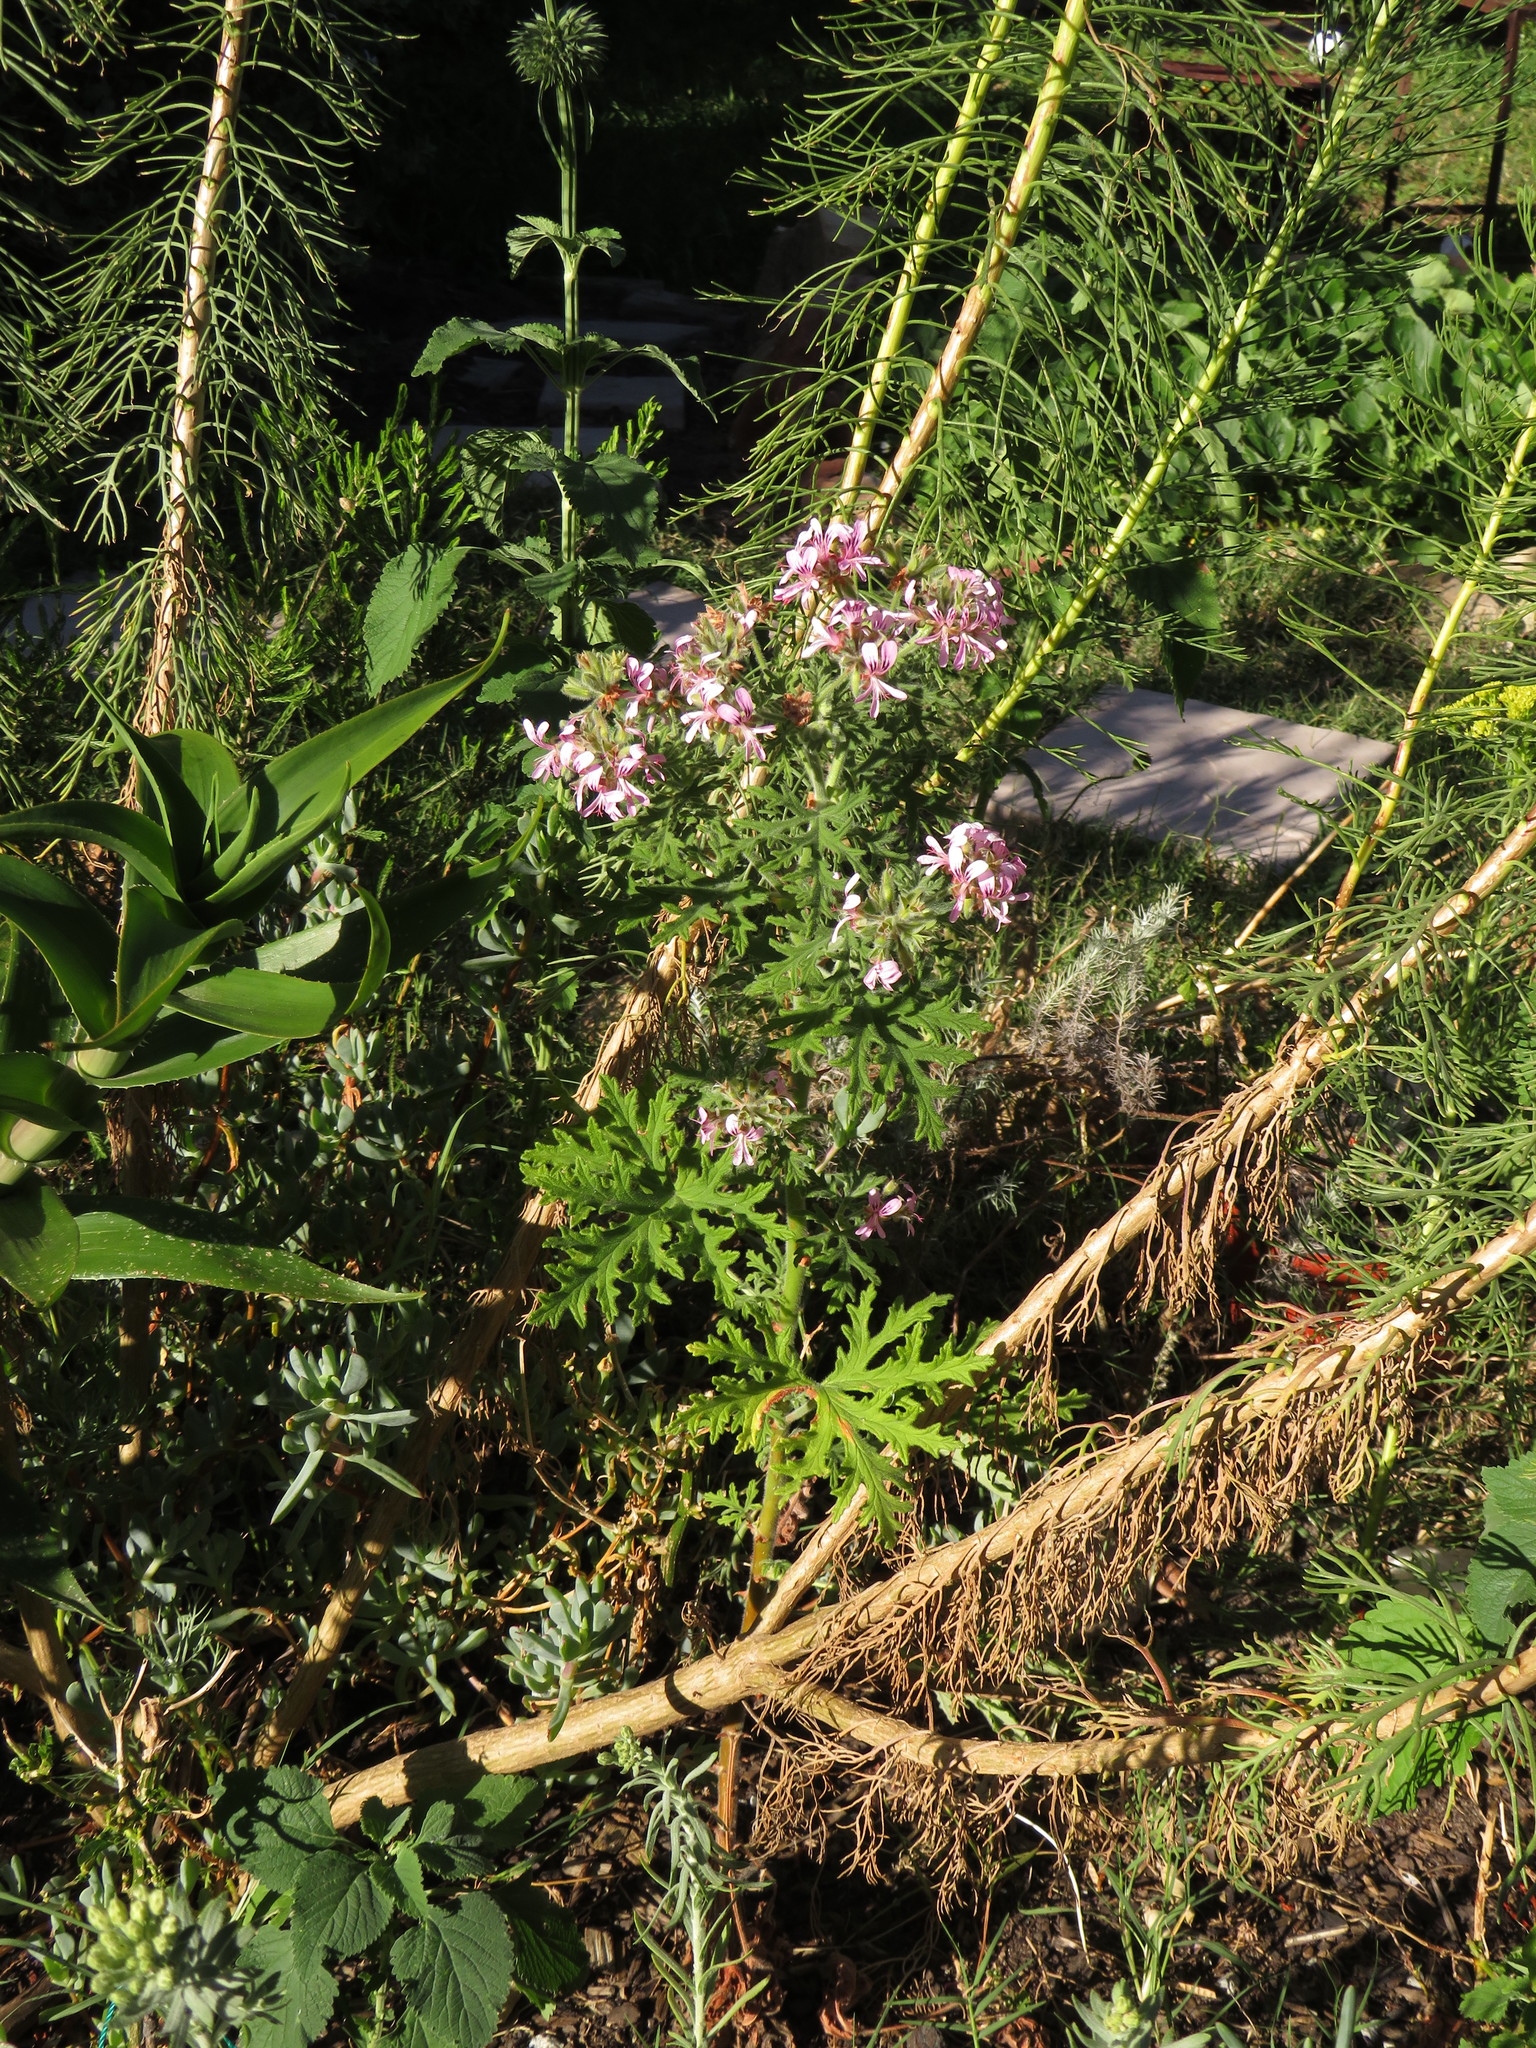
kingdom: Plantae
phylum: Tracheophyta
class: Magnoliopsida
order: Geraniales
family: Geraniaceae
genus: Pelargonium
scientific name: Pelargonium graveolens
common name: Rose-scent geranium
